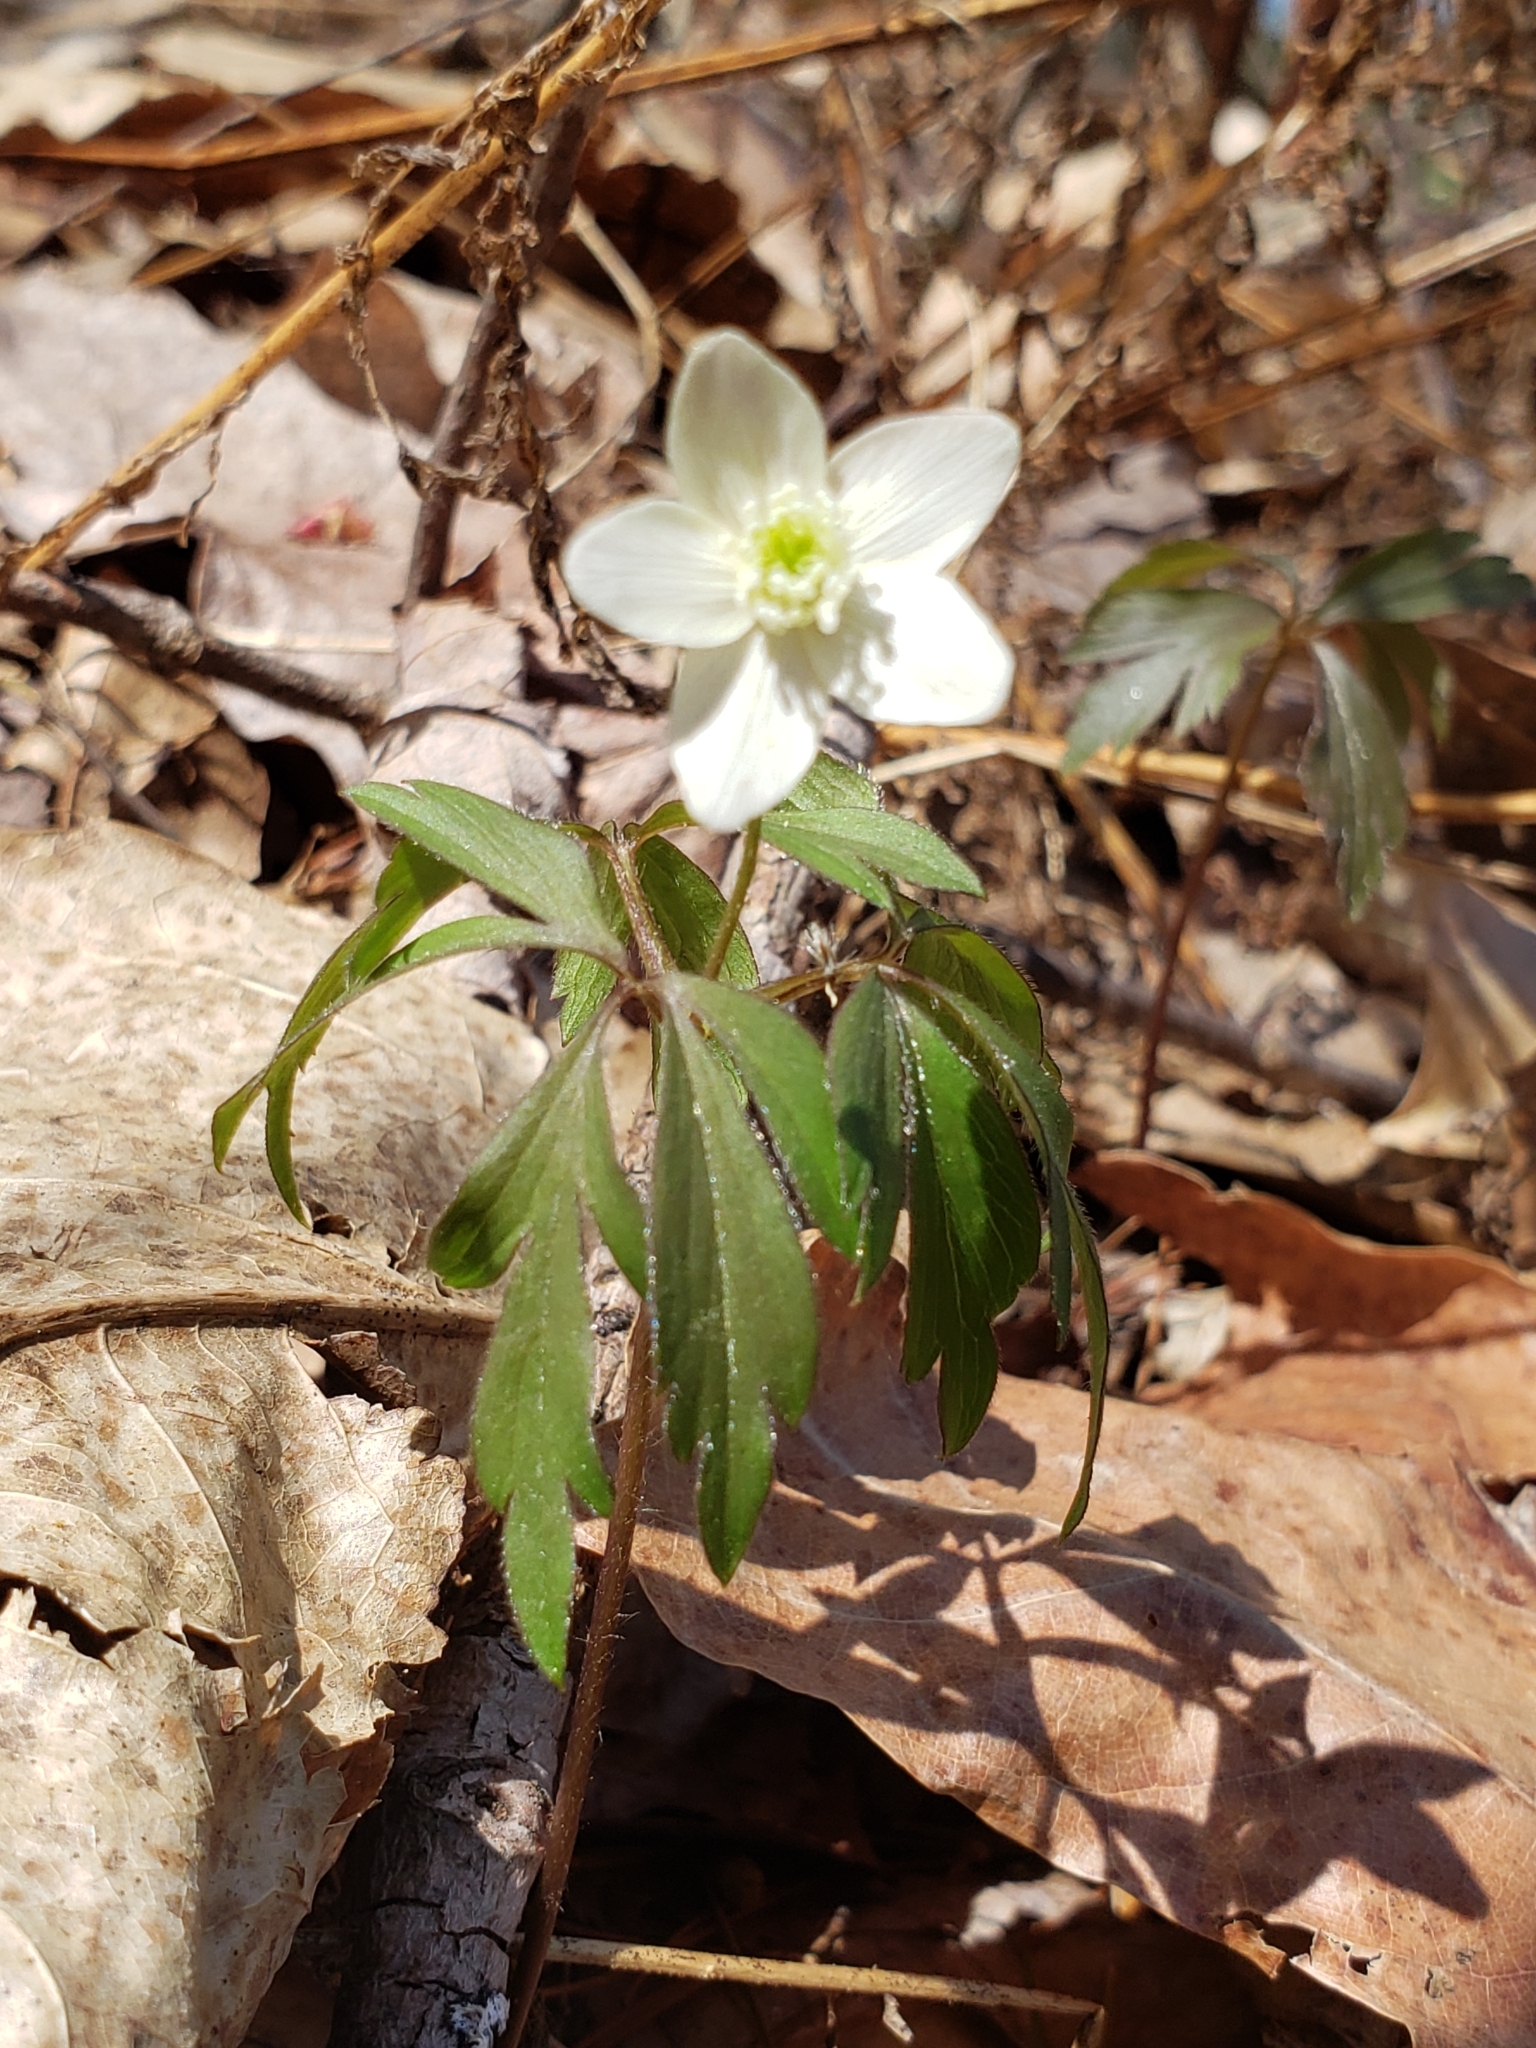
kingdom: Plantae
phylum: Tracheophyta
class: Magnoliopsida
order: Ranunculales
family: Ranunculaceae
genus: Anemone
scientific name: Anemone quinquefolia
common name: Wood anemone
